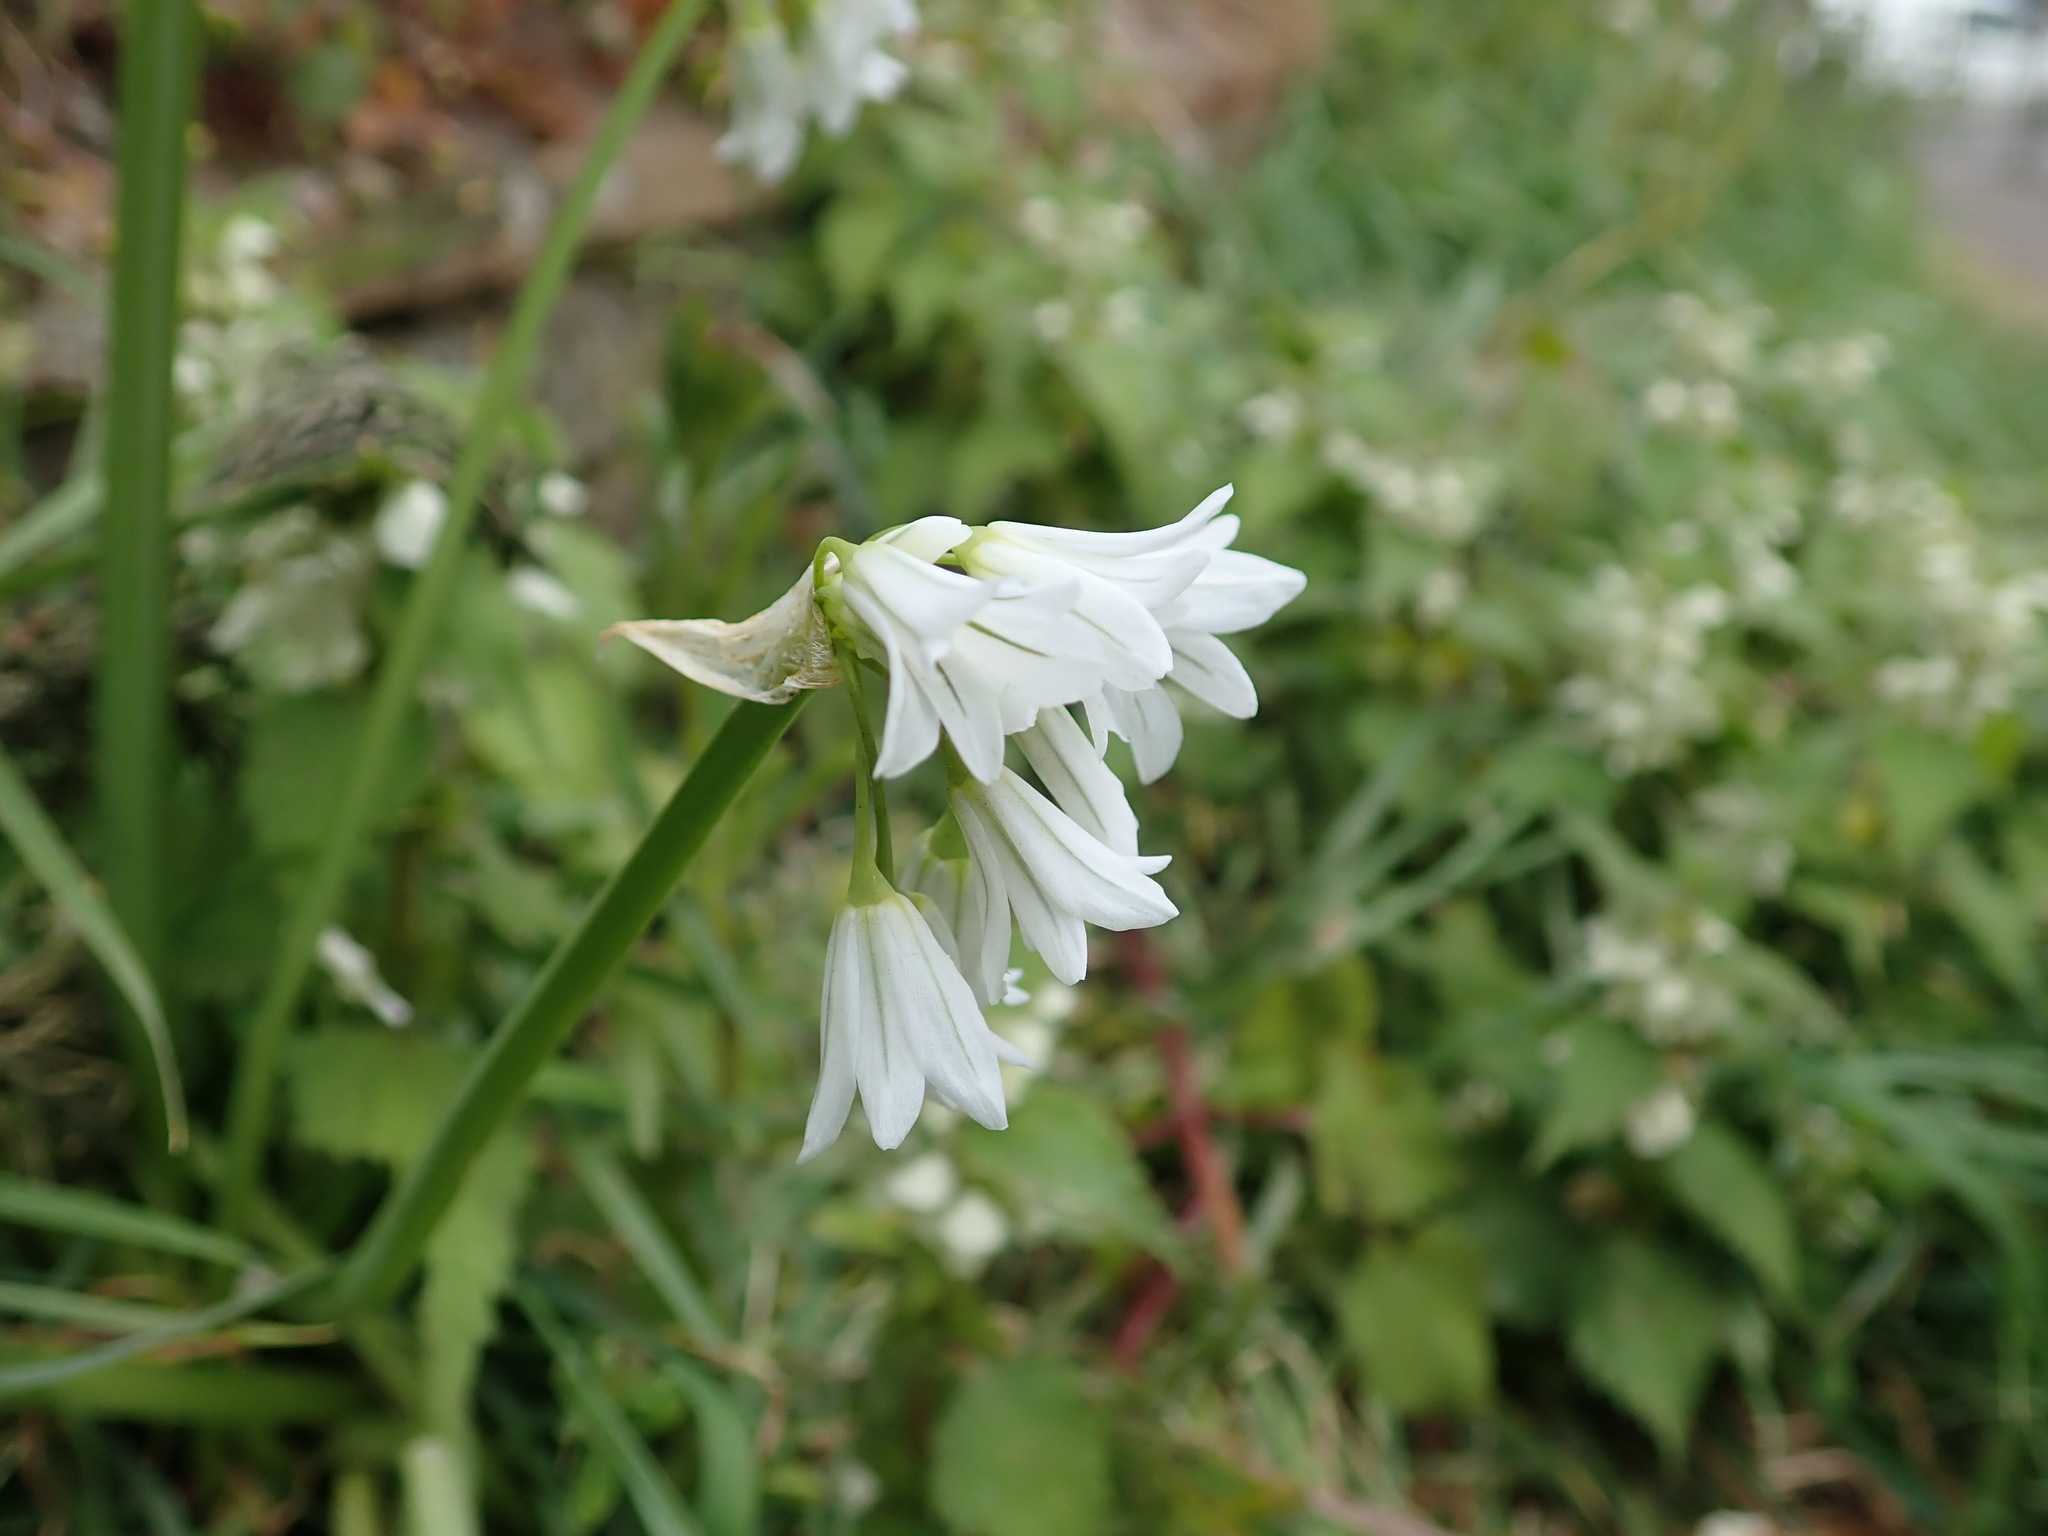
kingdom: Plantae
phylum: Tracheophyta
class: Liliopsida
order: Asparagales
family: Amaryllidaceae
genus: Allium
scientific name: Allium triquetrum
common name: Three-cornered garlic
